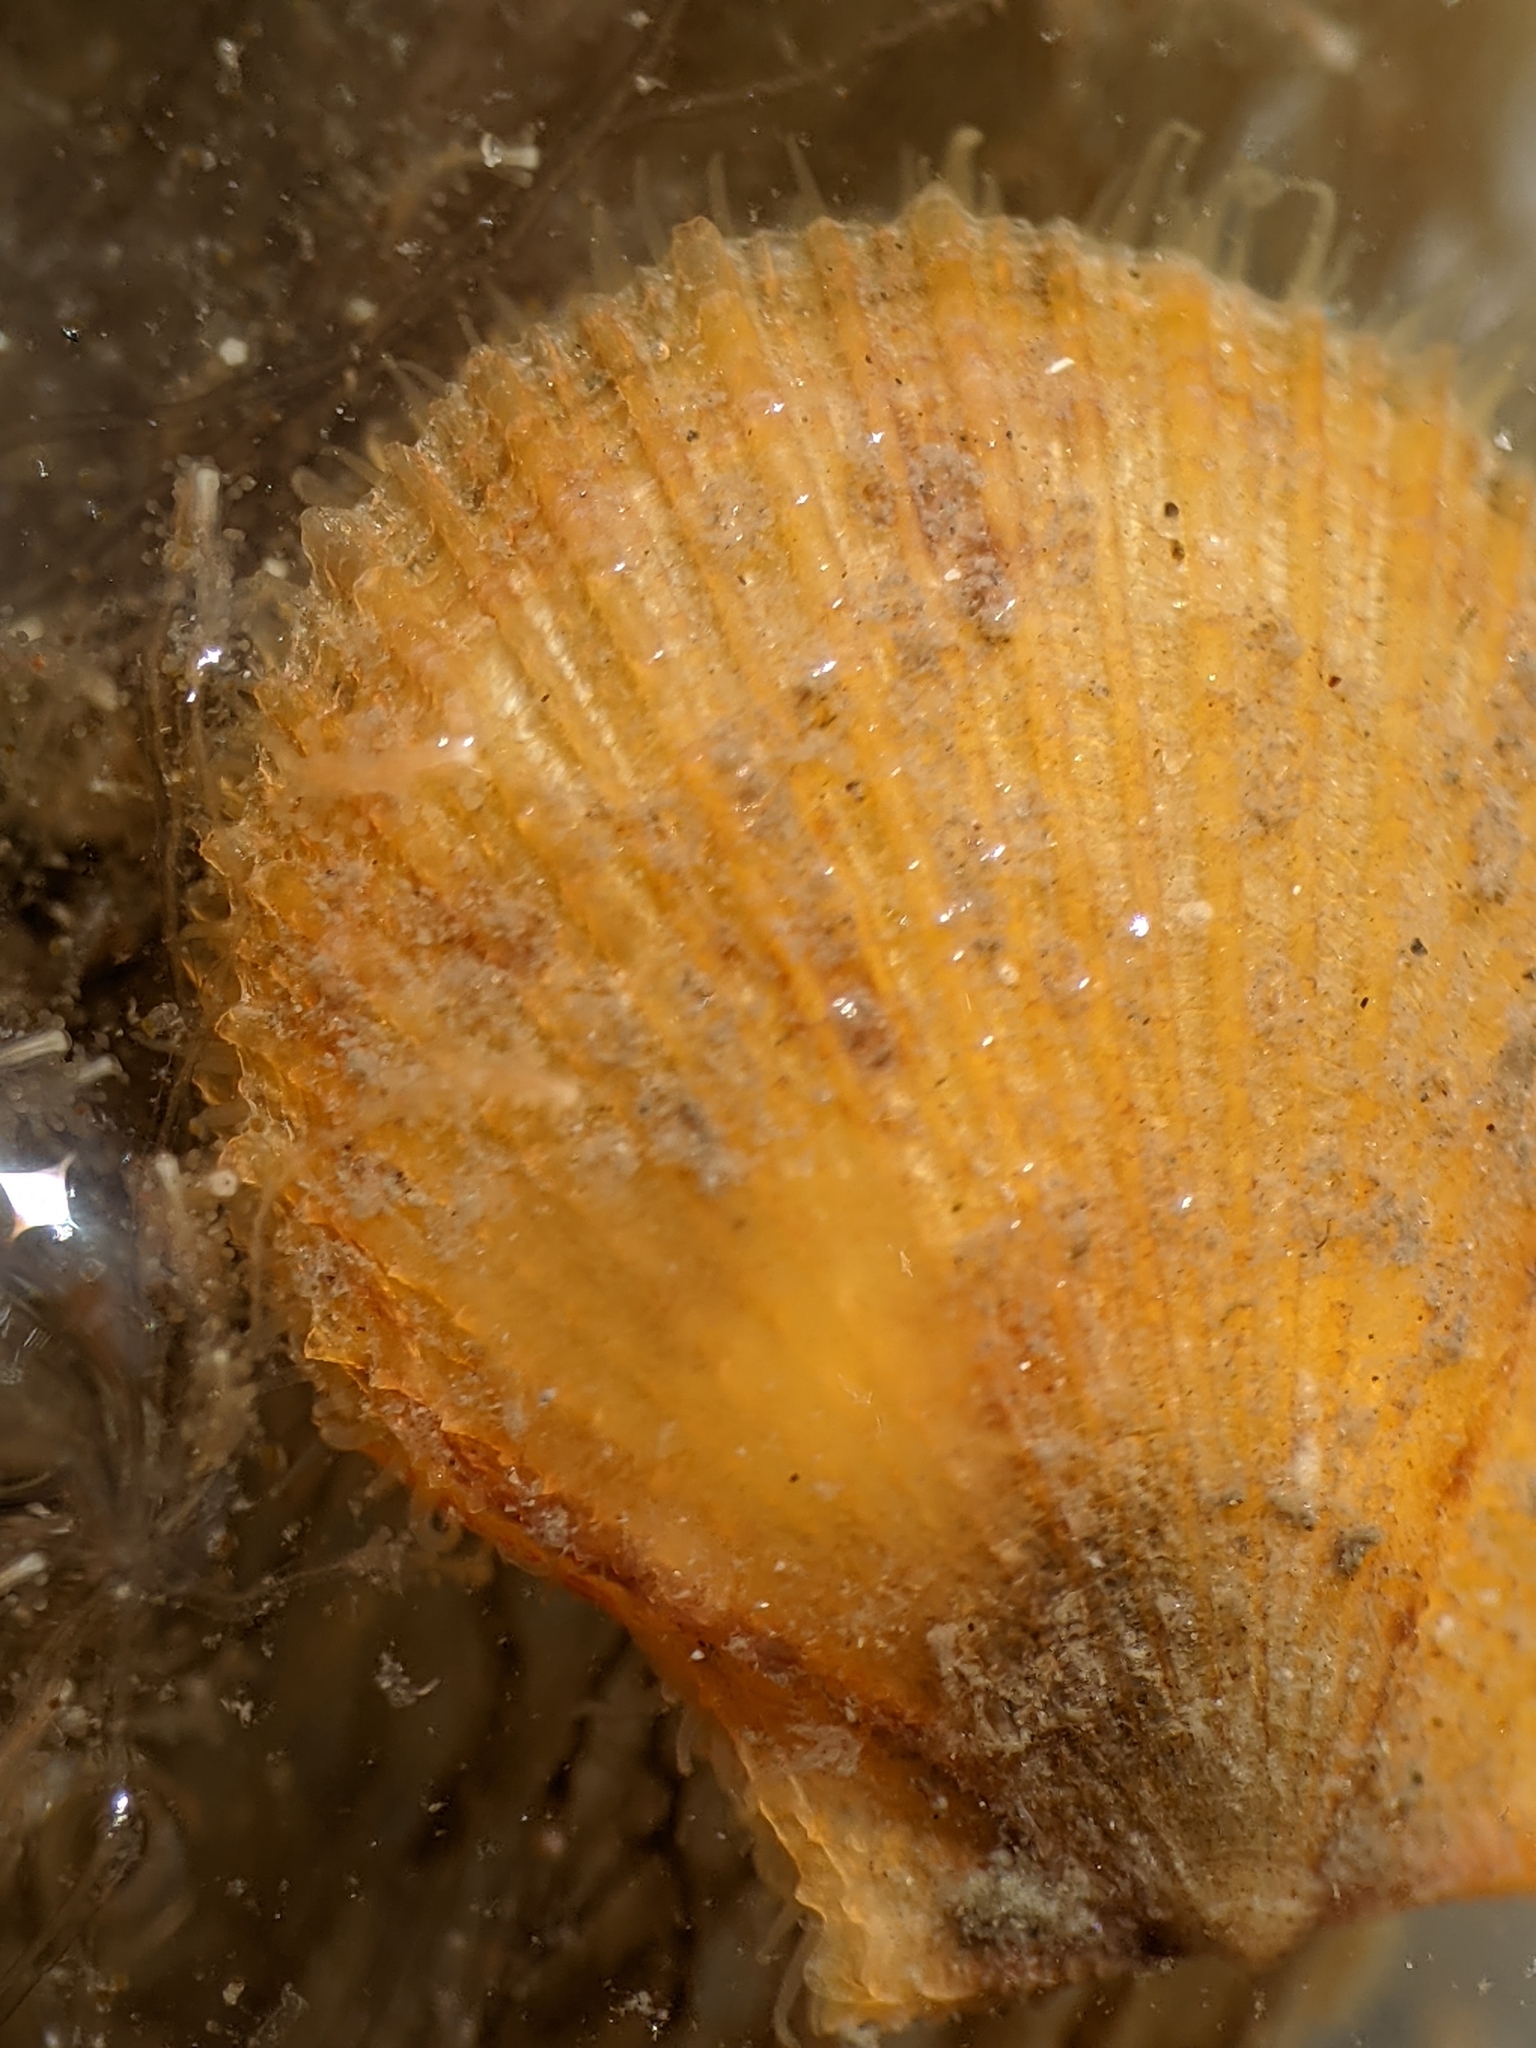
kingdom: Animalia
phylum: Mollusca
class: Bivalvia
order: Pectinida
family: Pectinidae
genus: Crassadoma
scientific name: Crassadoma gigantea
